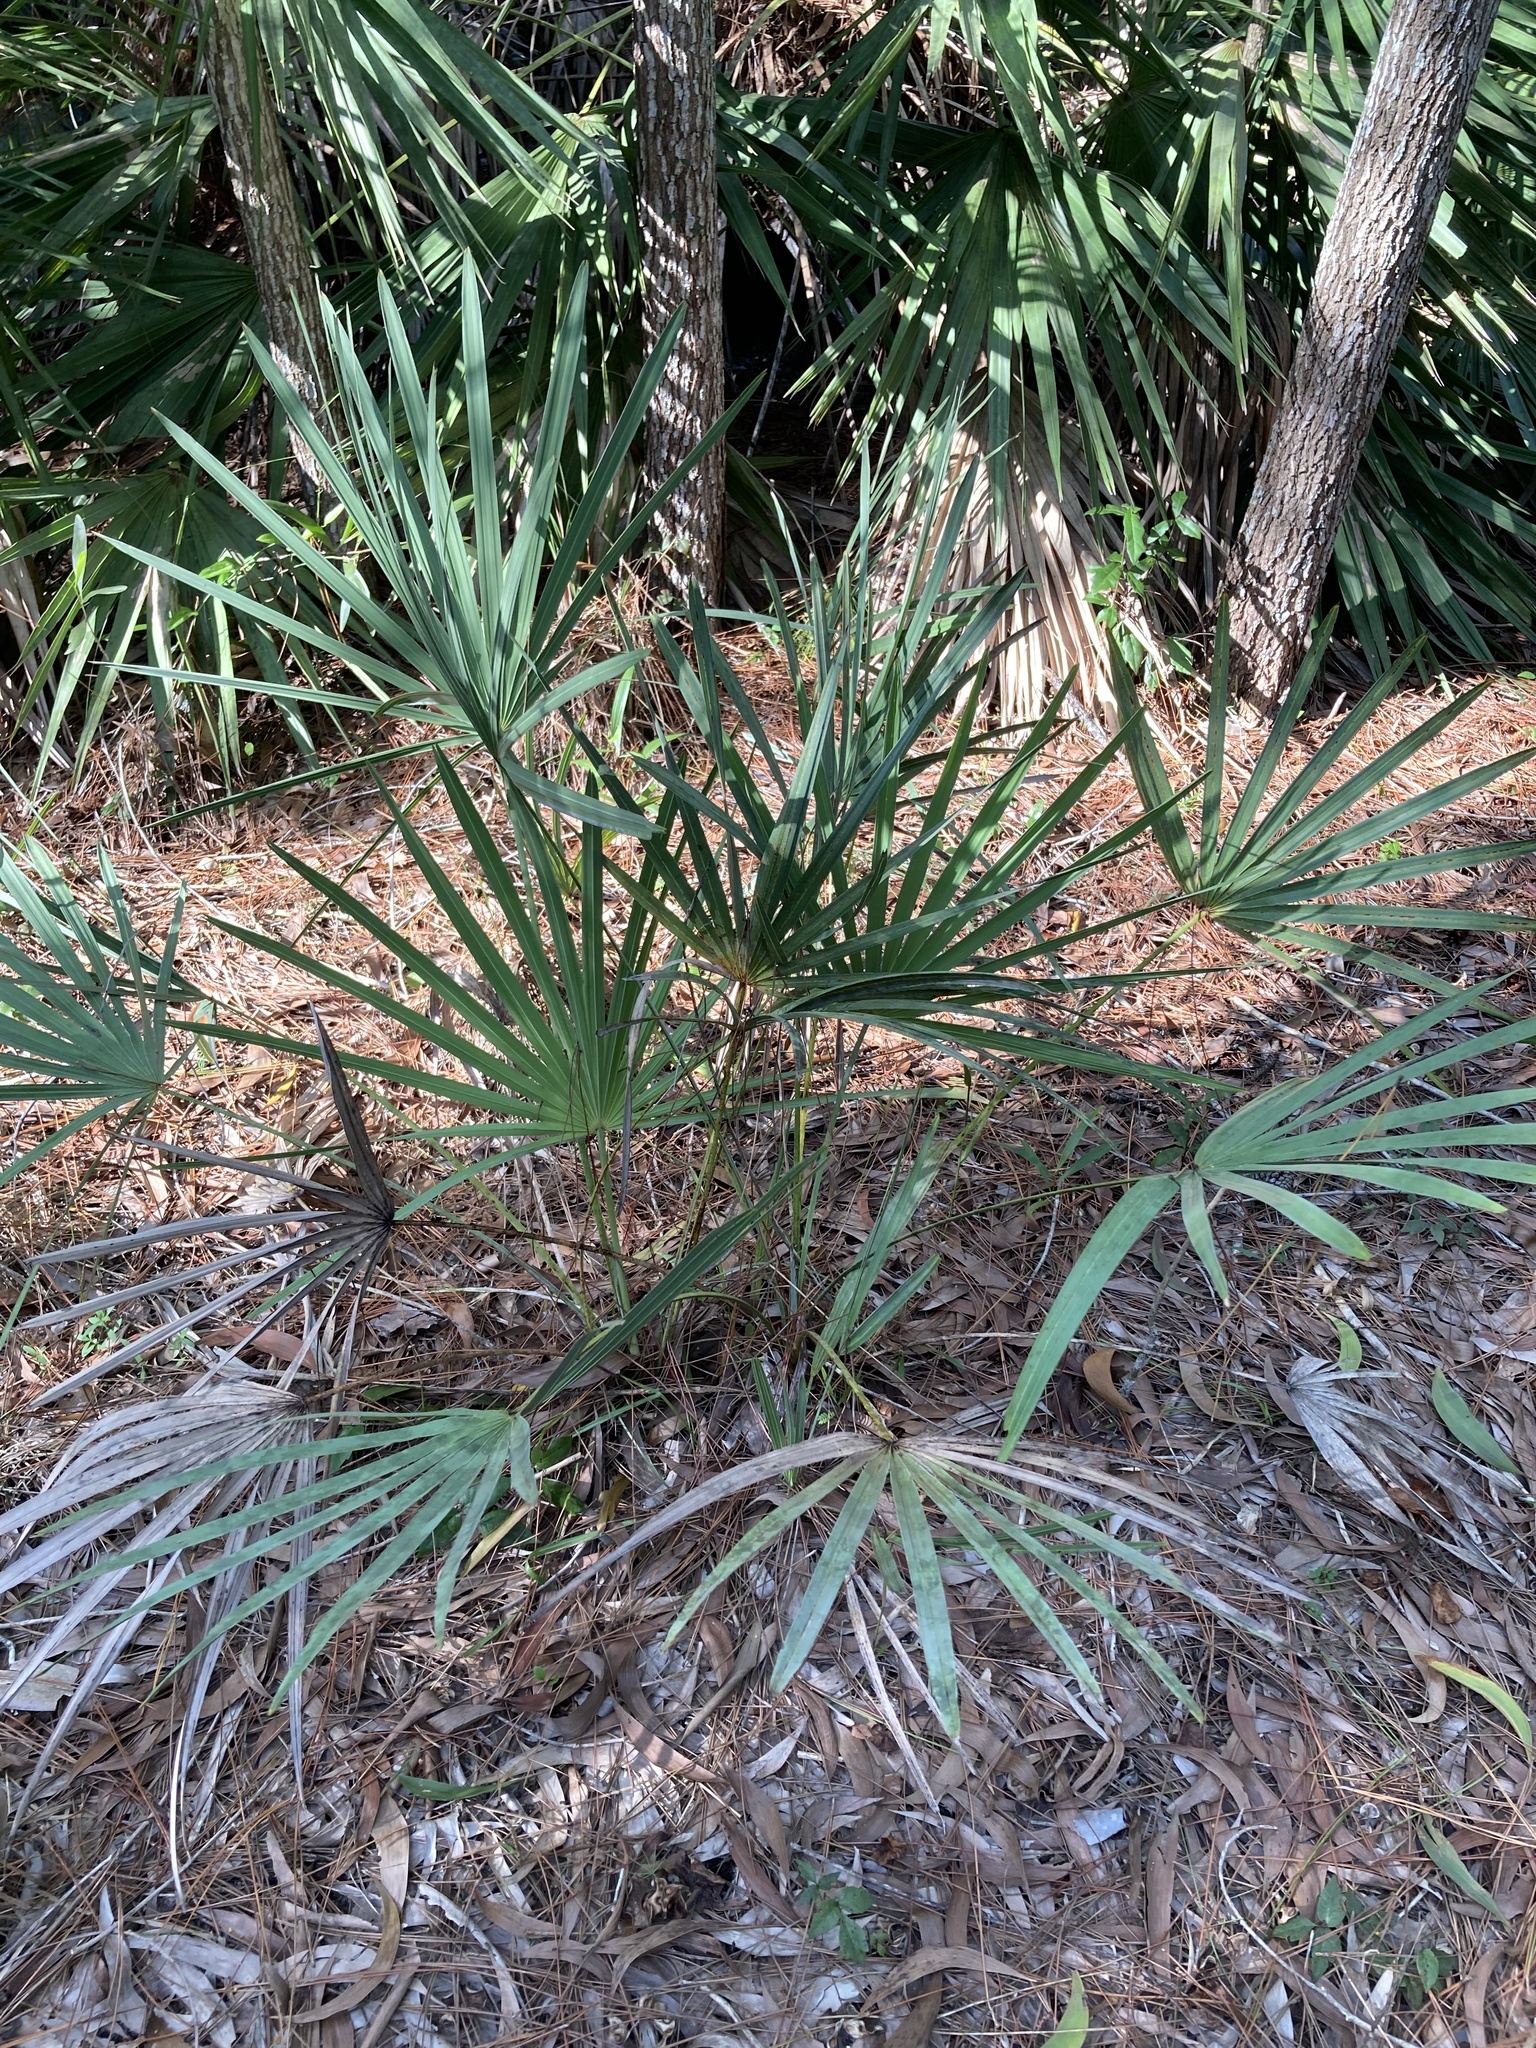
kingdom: Plantae
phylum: Tracheophyta
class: Liliopsida
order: Arecales
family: Arecaceae
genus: Serenoa
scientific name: Serenoa repens
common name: Saw-palmetto
